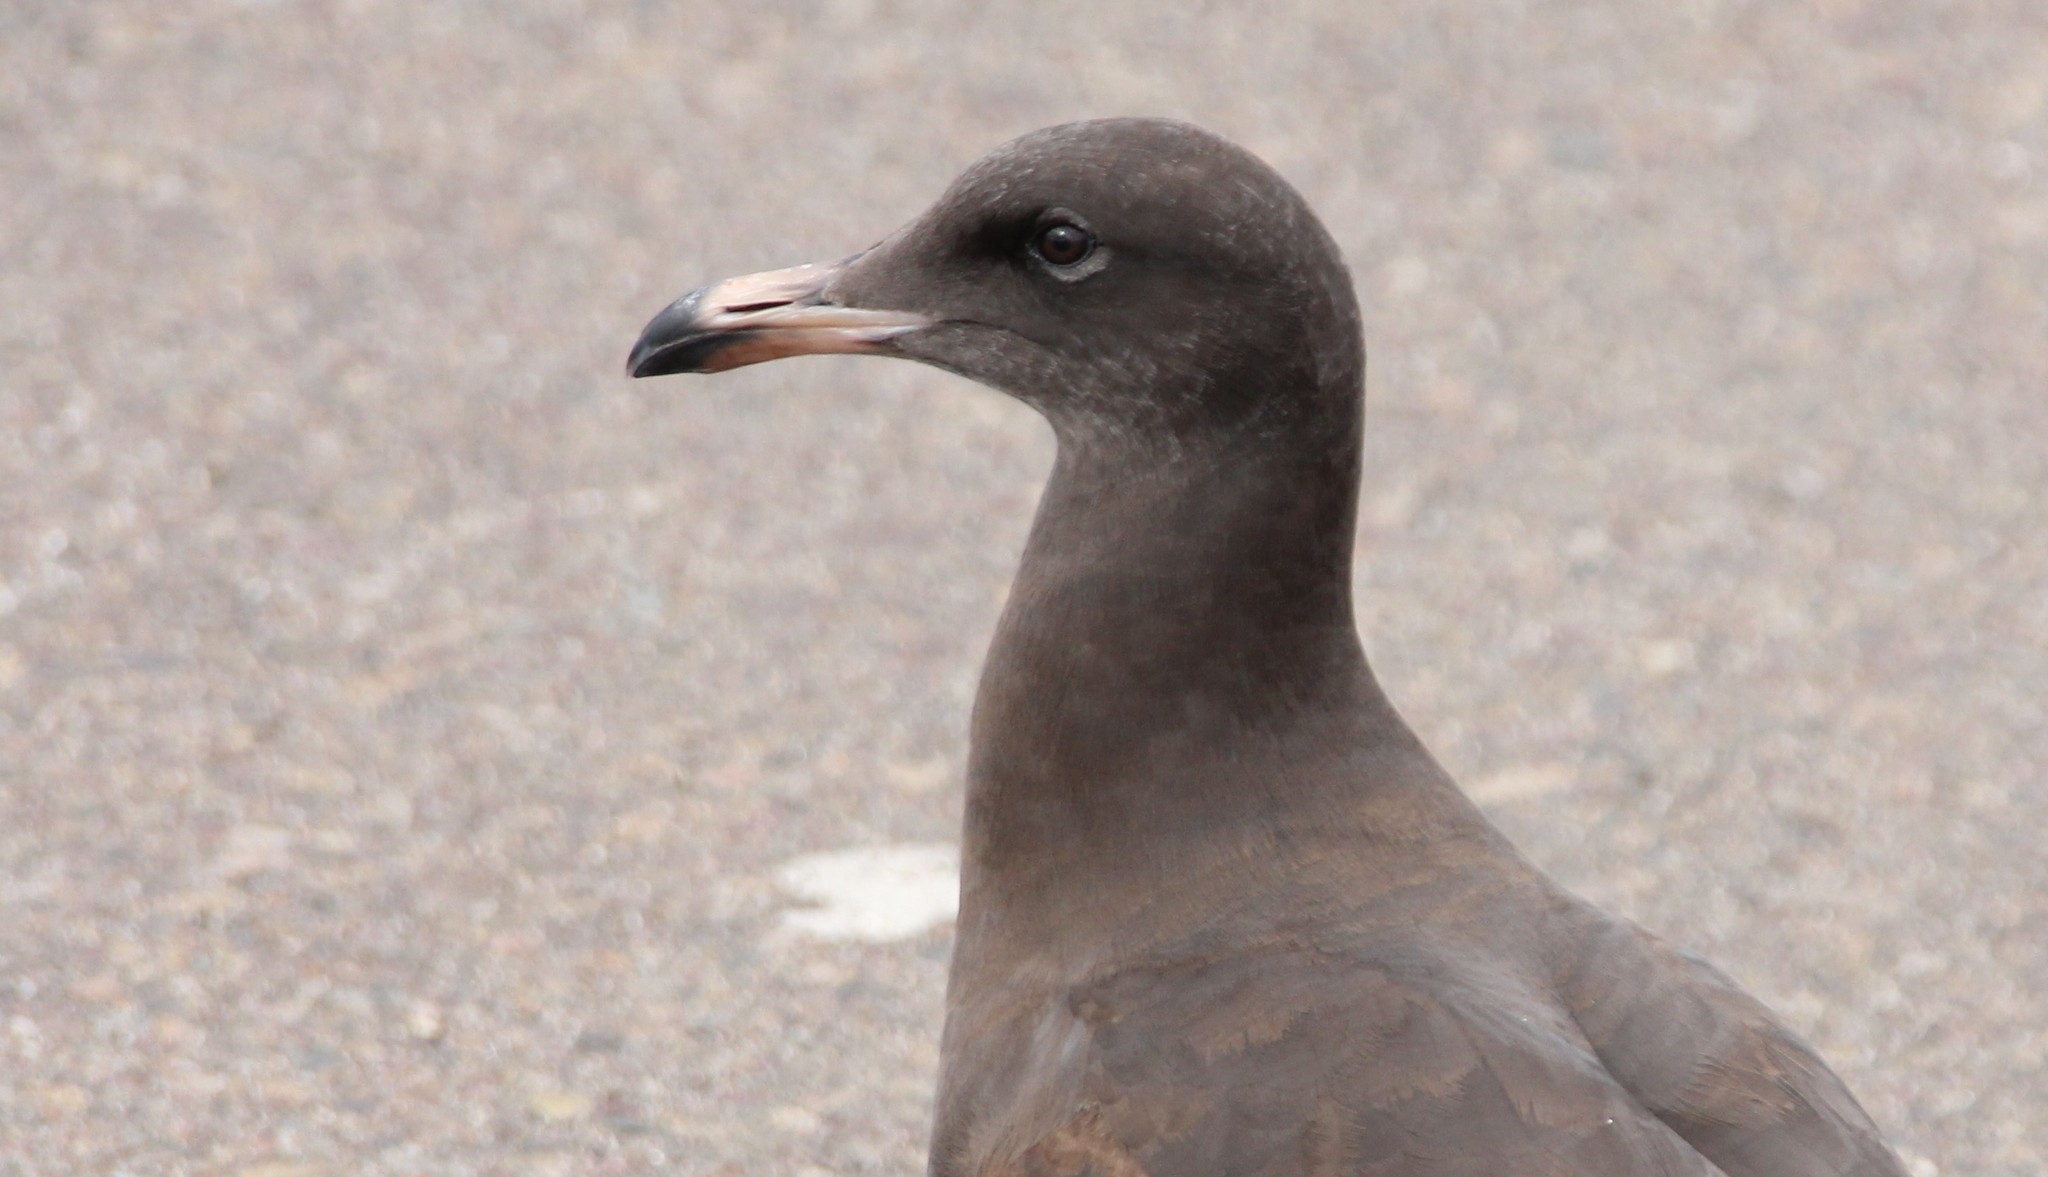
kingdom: Animalia
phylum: Chordata
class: Aves
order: Charadriiformes
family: Laridae
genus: Larus
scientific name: Larus heermanni
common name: Heermann's gull
